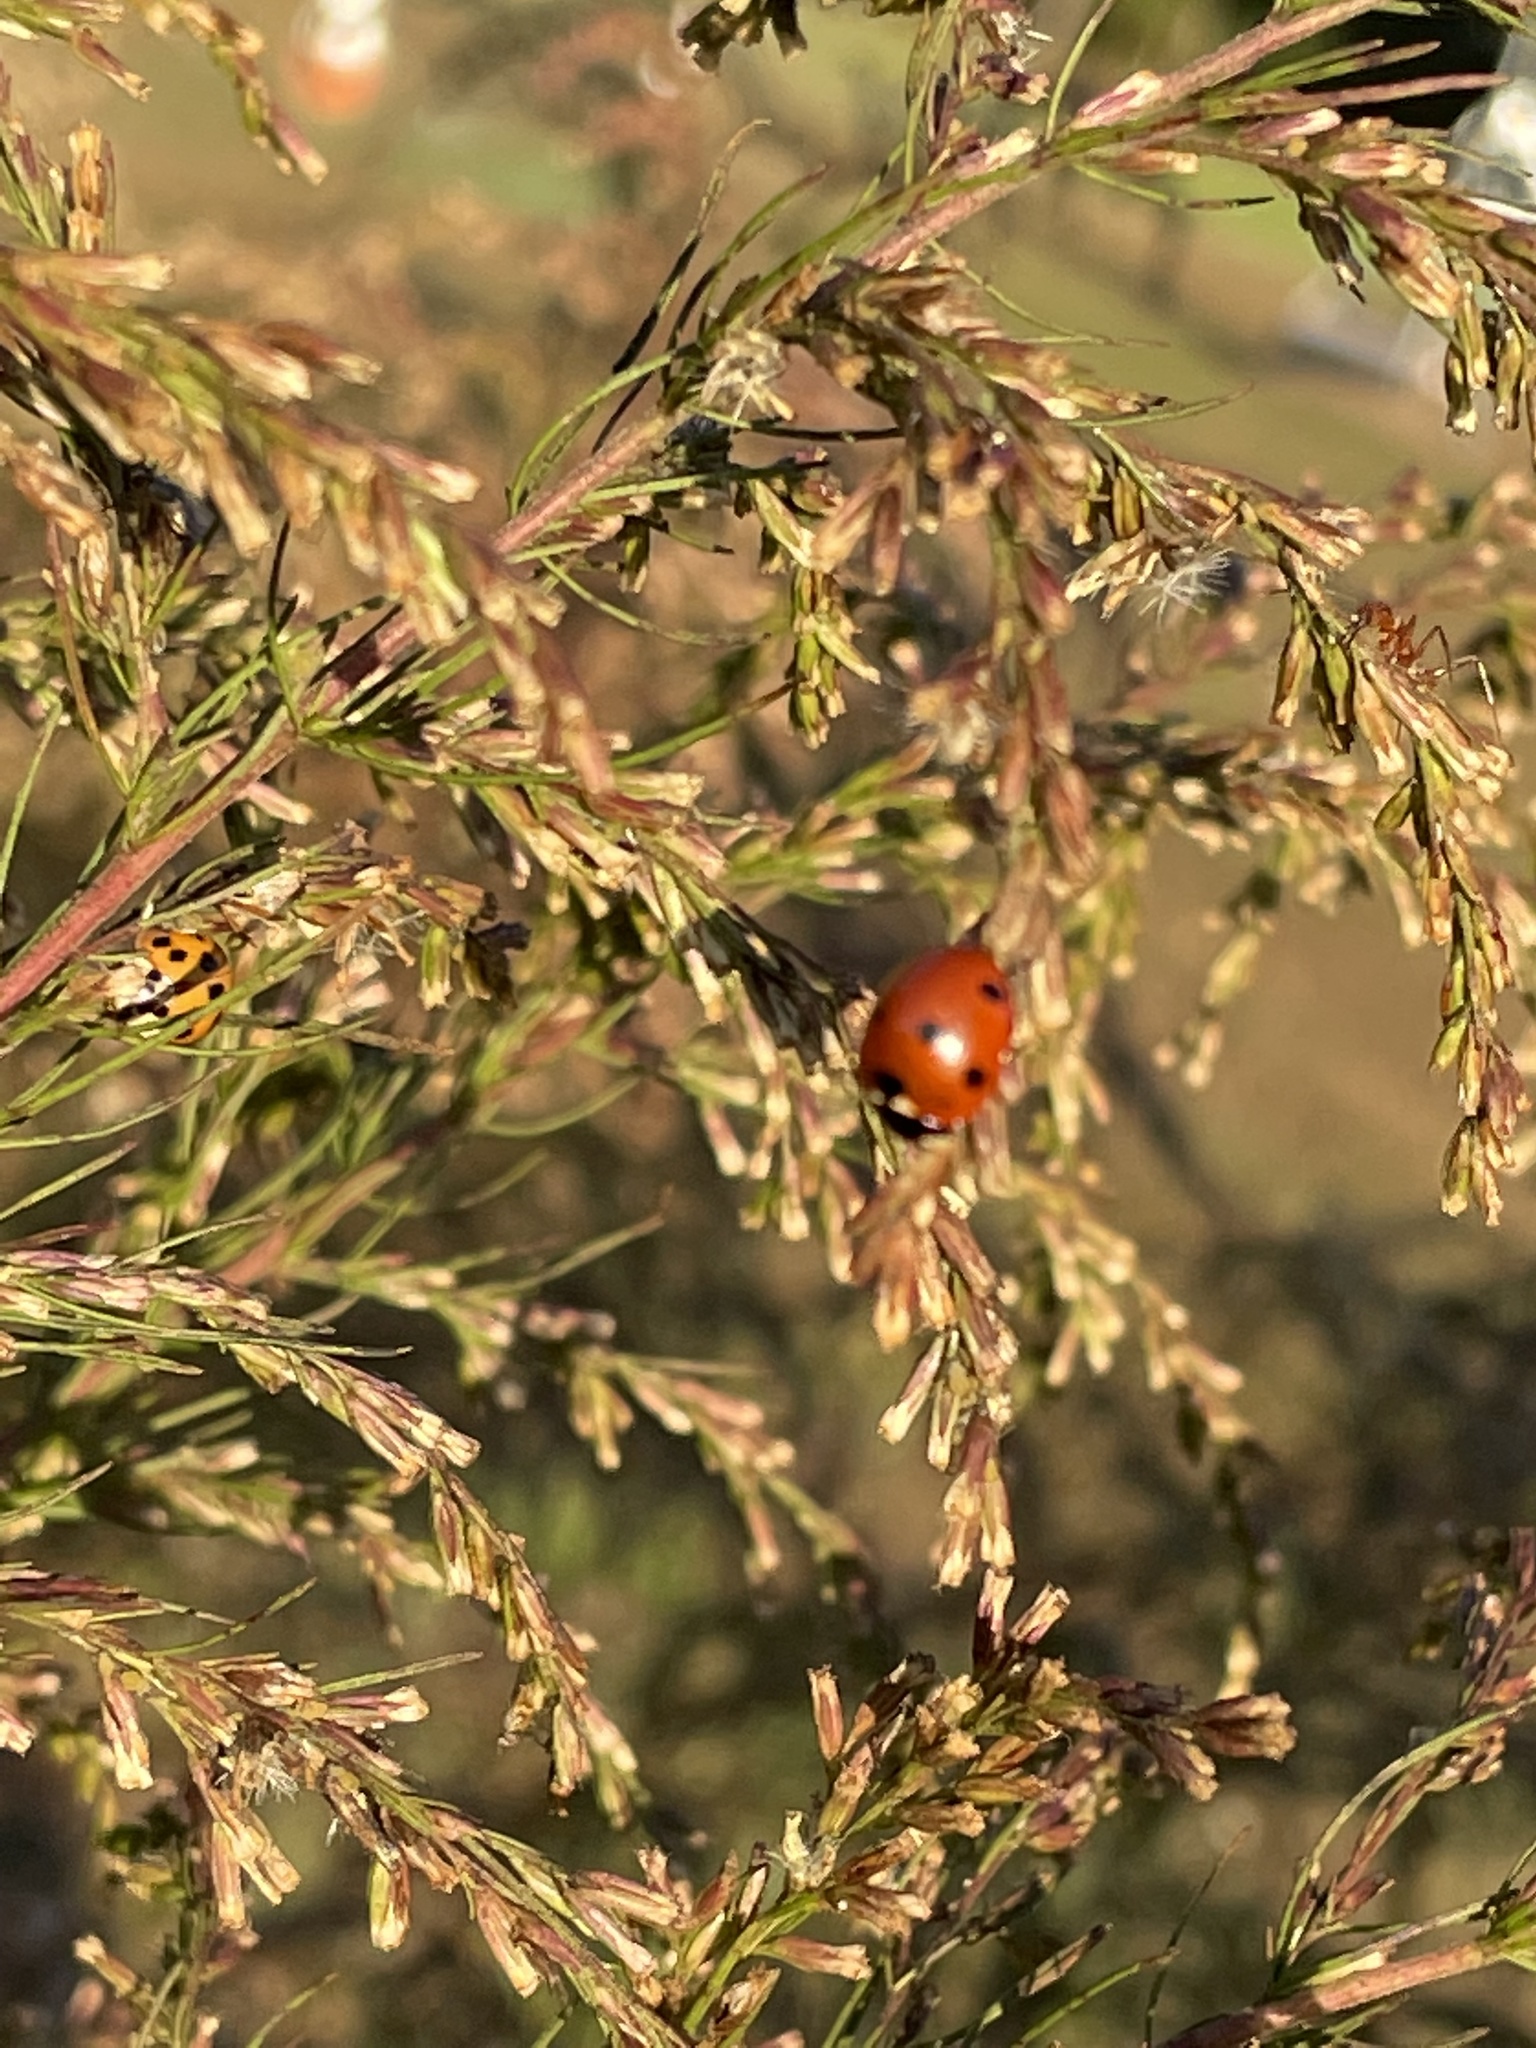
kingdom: Animalia
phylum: Arthropoda
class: Insecta
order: Coleoptera
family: Coccinellidae
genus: Coccinella
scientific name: Coccinella septempunctata
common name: Sevenspotted lady beetle
